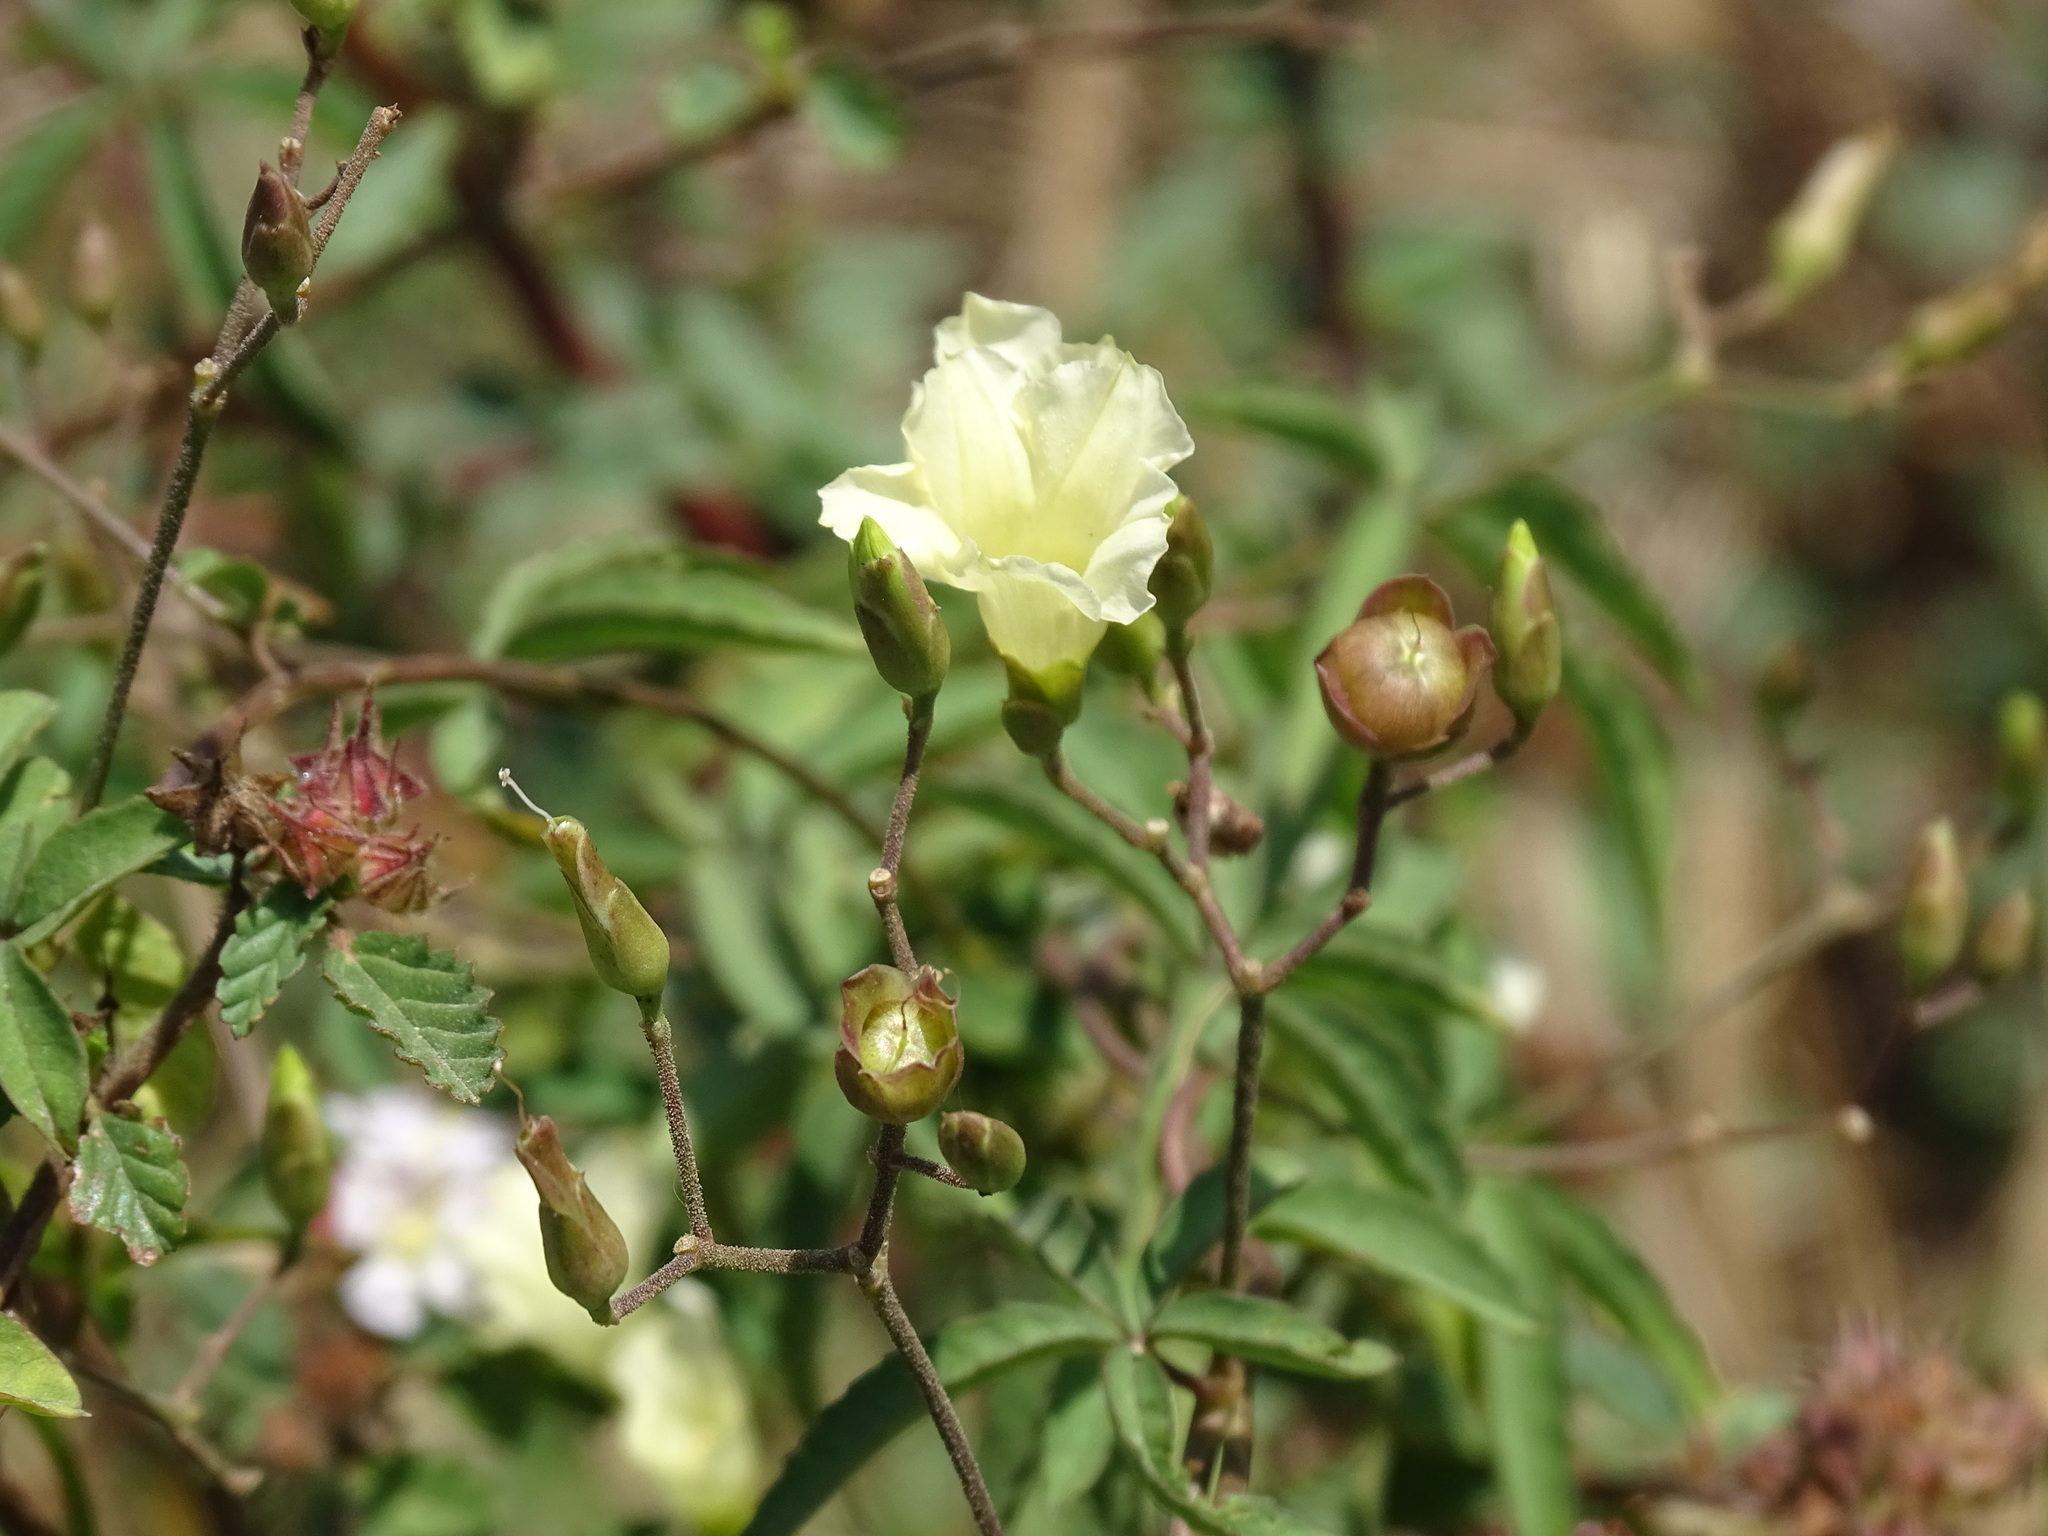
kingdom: Plantae
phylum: Tracheophyta
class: Magnoliopsida
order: Solanales
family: Convolvulaceae
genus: Distimake
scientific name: Distimake quinquefolius
